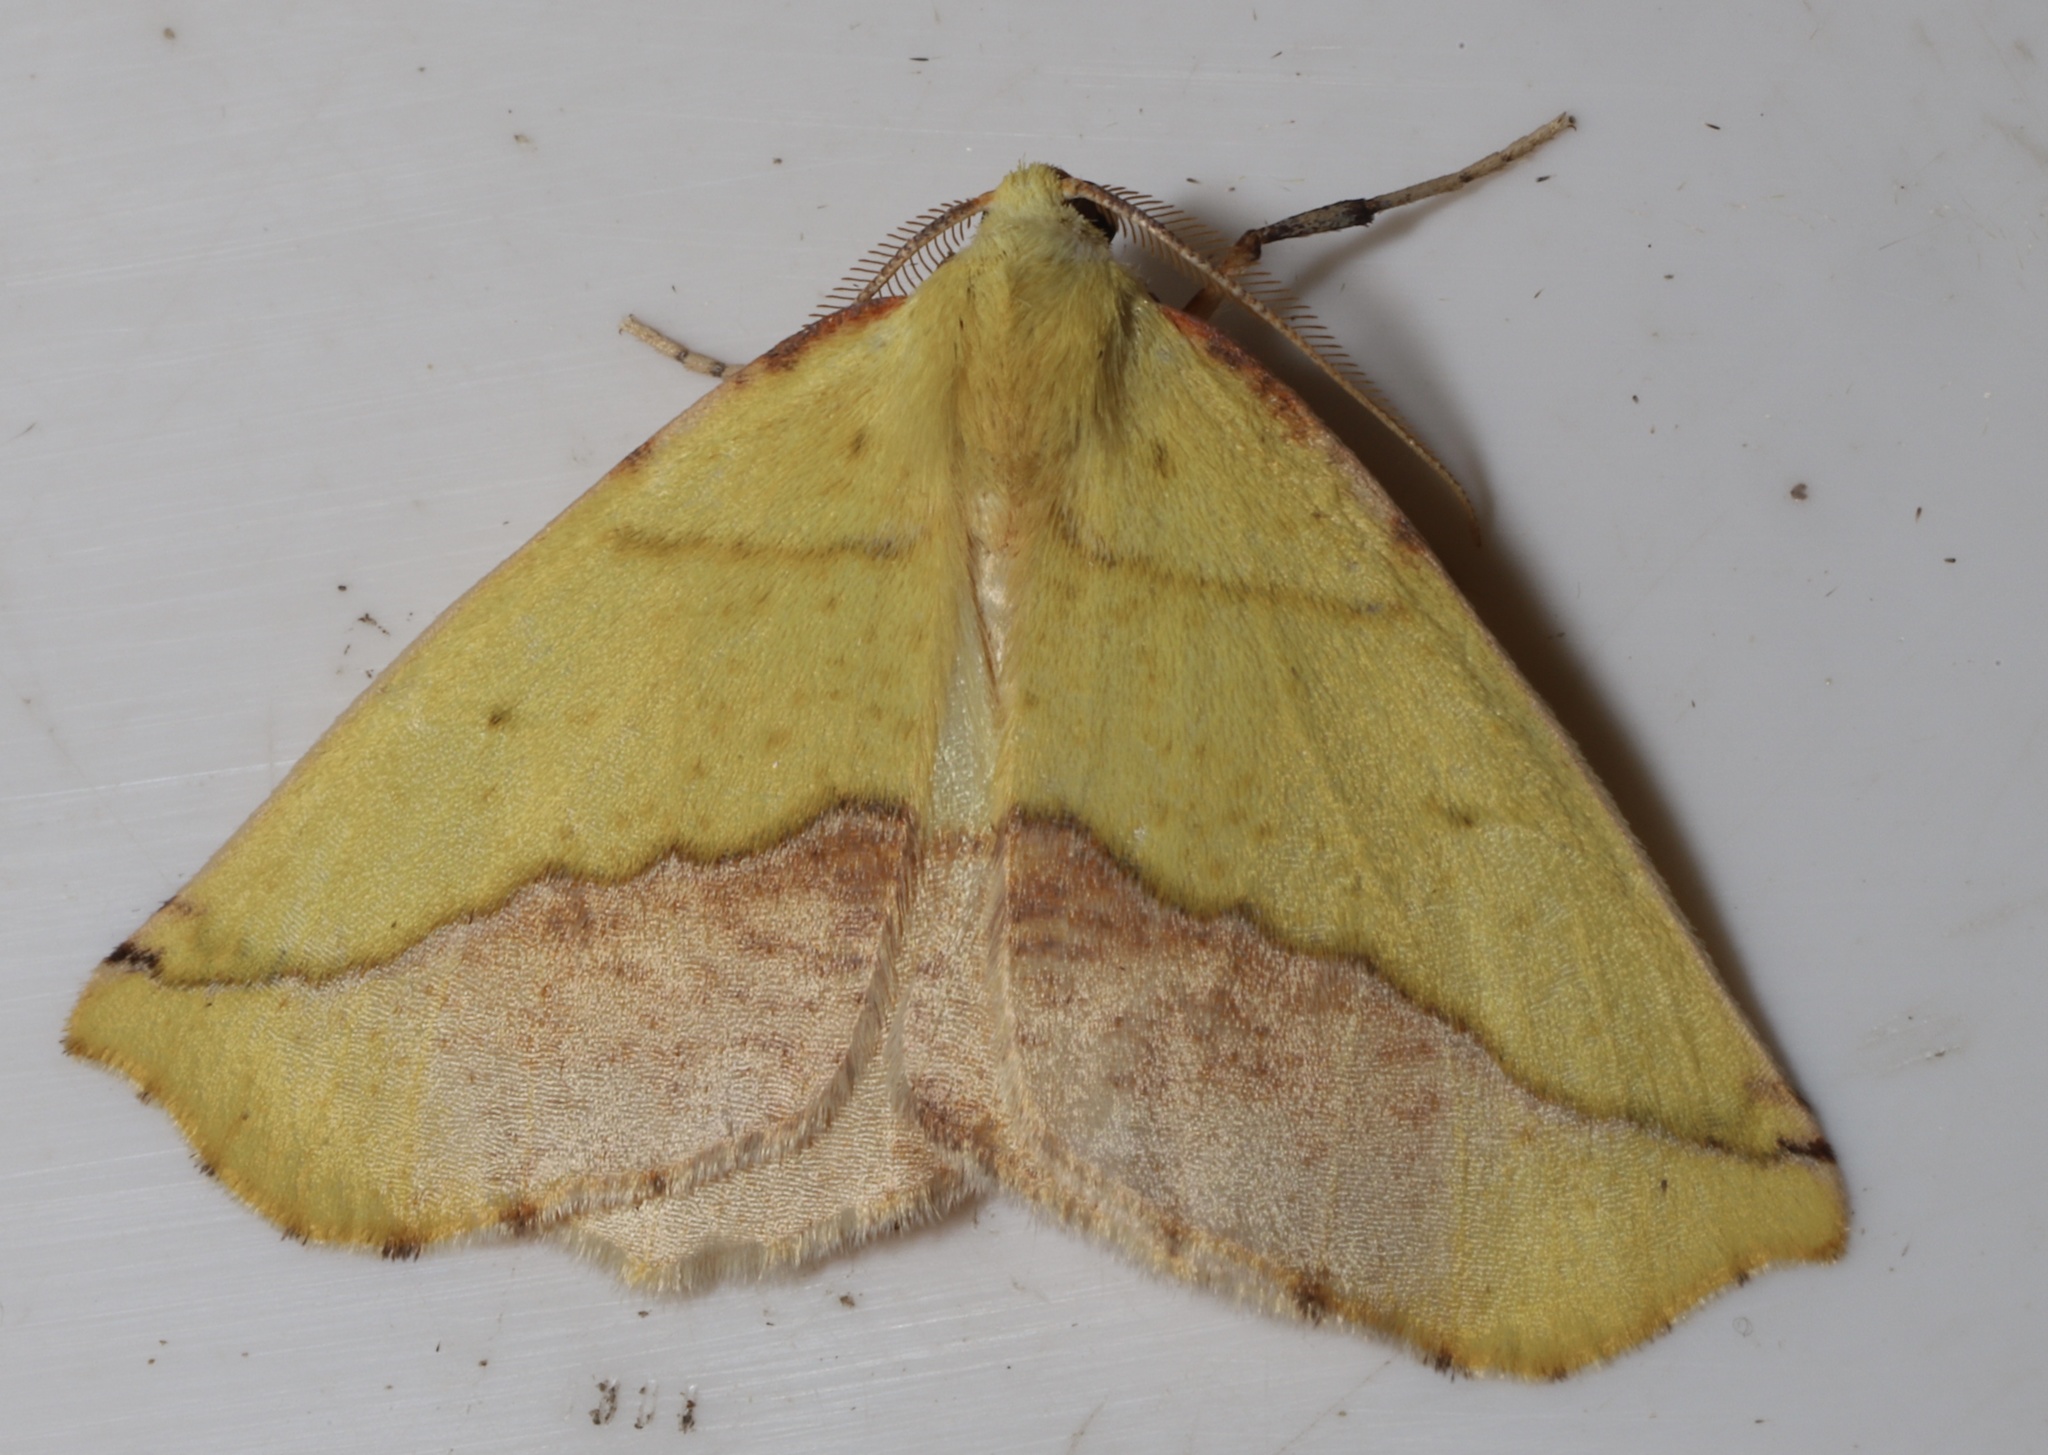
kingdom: Animalia
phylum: Arthropoda
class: Insecta
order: Lepidoptera
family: Geometridae
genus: Sicya
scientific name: Sicya macularia
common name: Sharp-lined yellow
